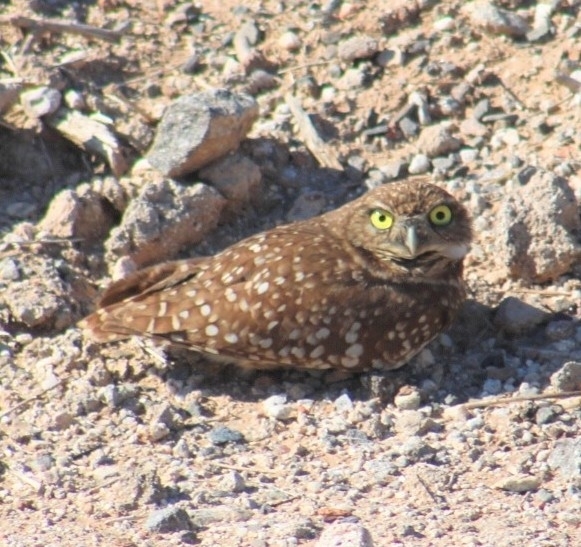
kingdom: Animalia
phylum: Chordata
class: Aves
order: Strigiformes
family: Strigidae
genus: Athene
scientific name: Athene cunicularia
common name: Burrowing owl
